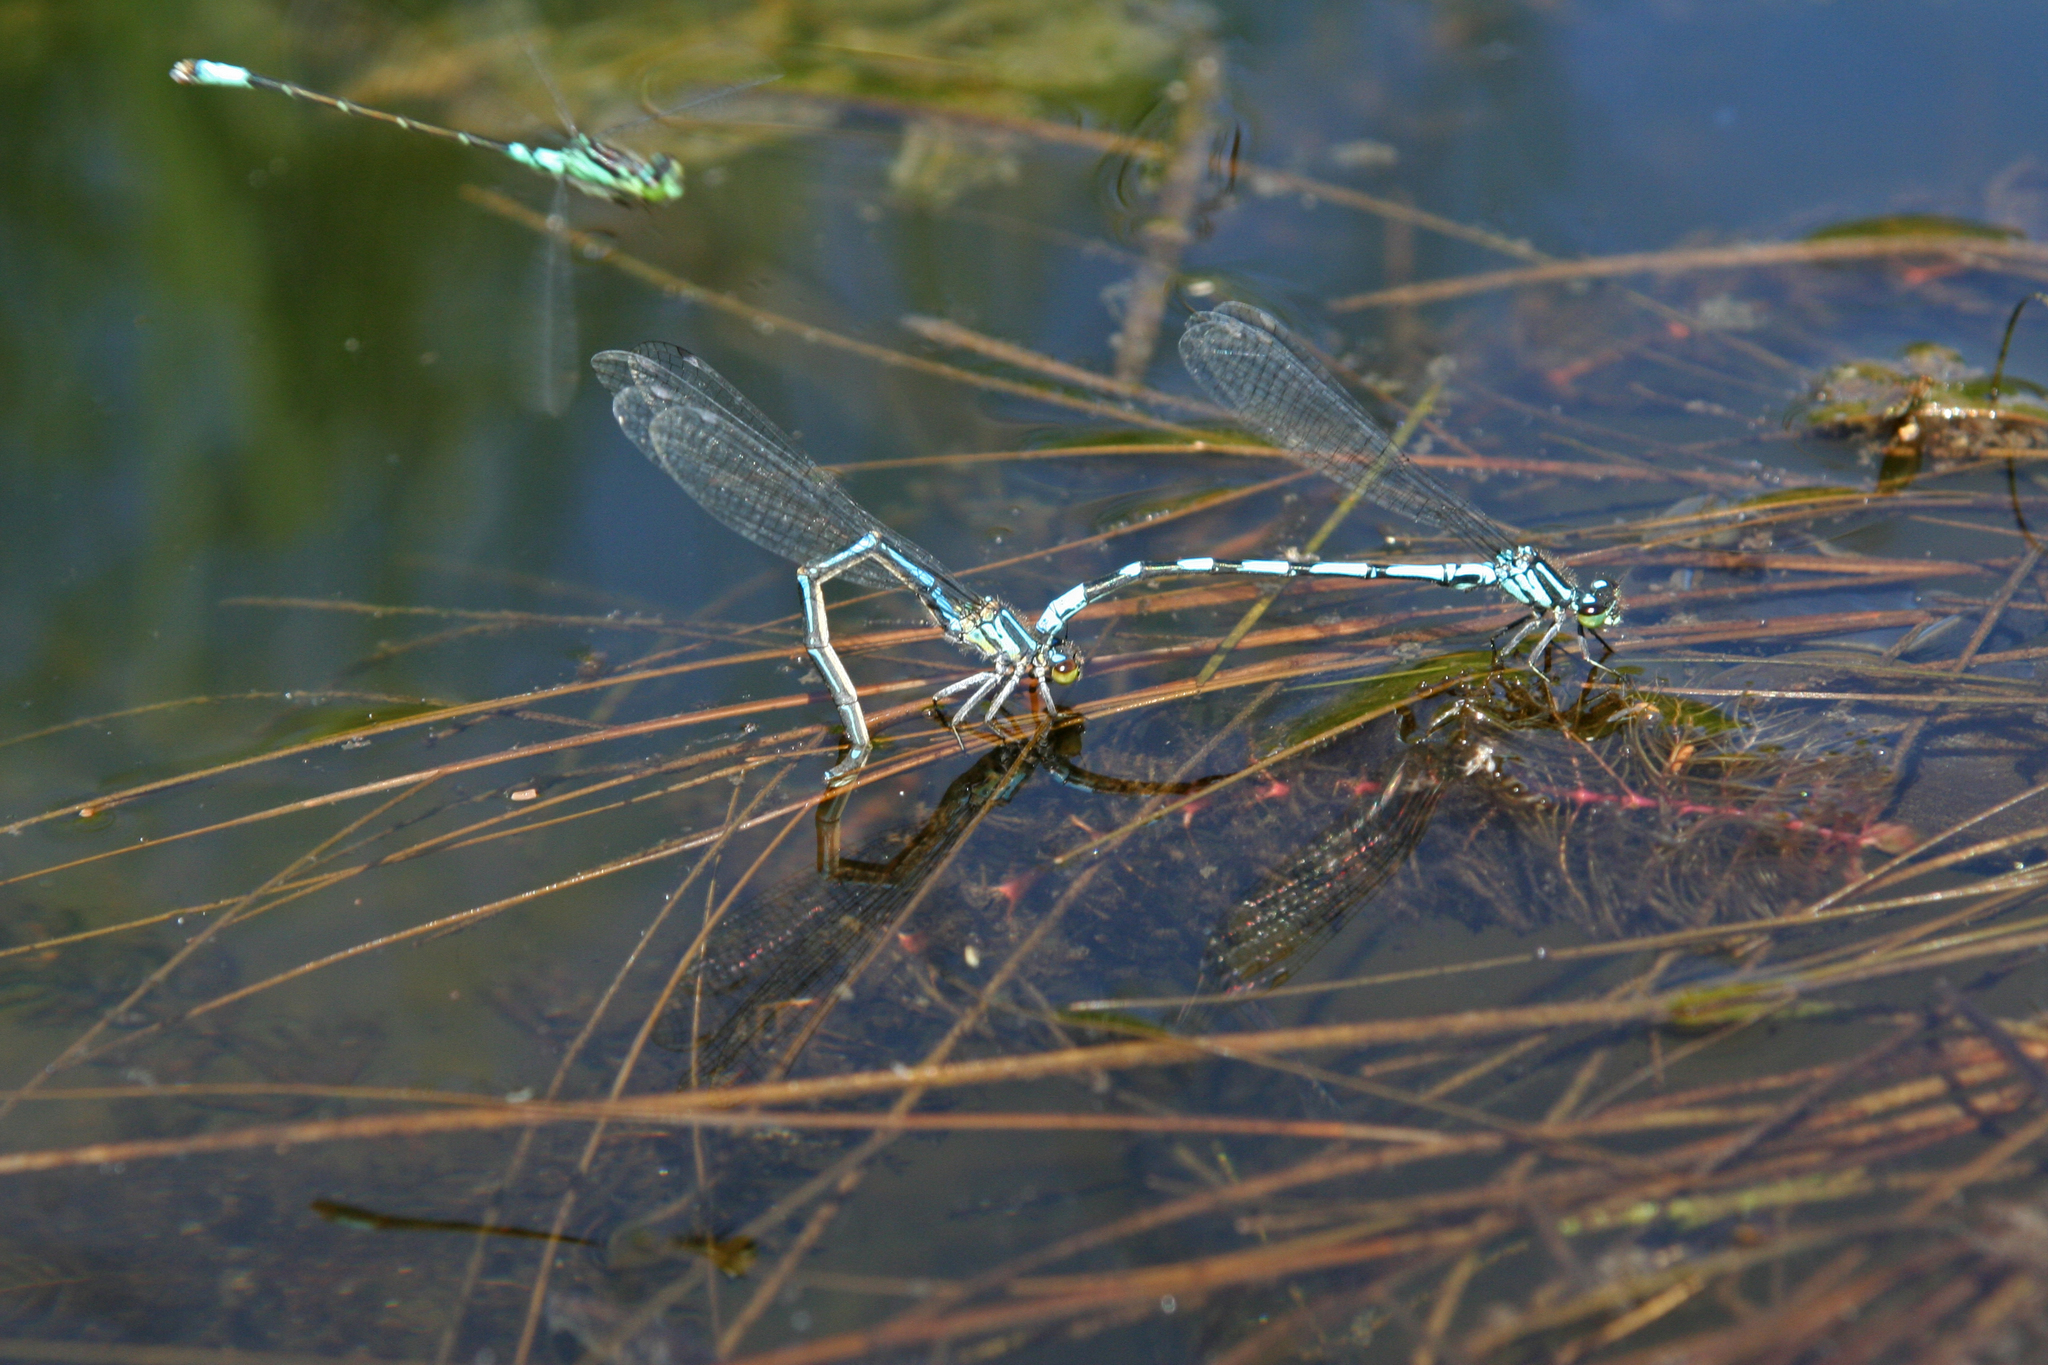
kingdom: Animalia
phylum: Arthropoda
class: Insecta
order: Odonata
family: Coenagrionidae
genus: Coenagrion
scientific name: Coenagrion hylas
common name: Frey's damselfly
